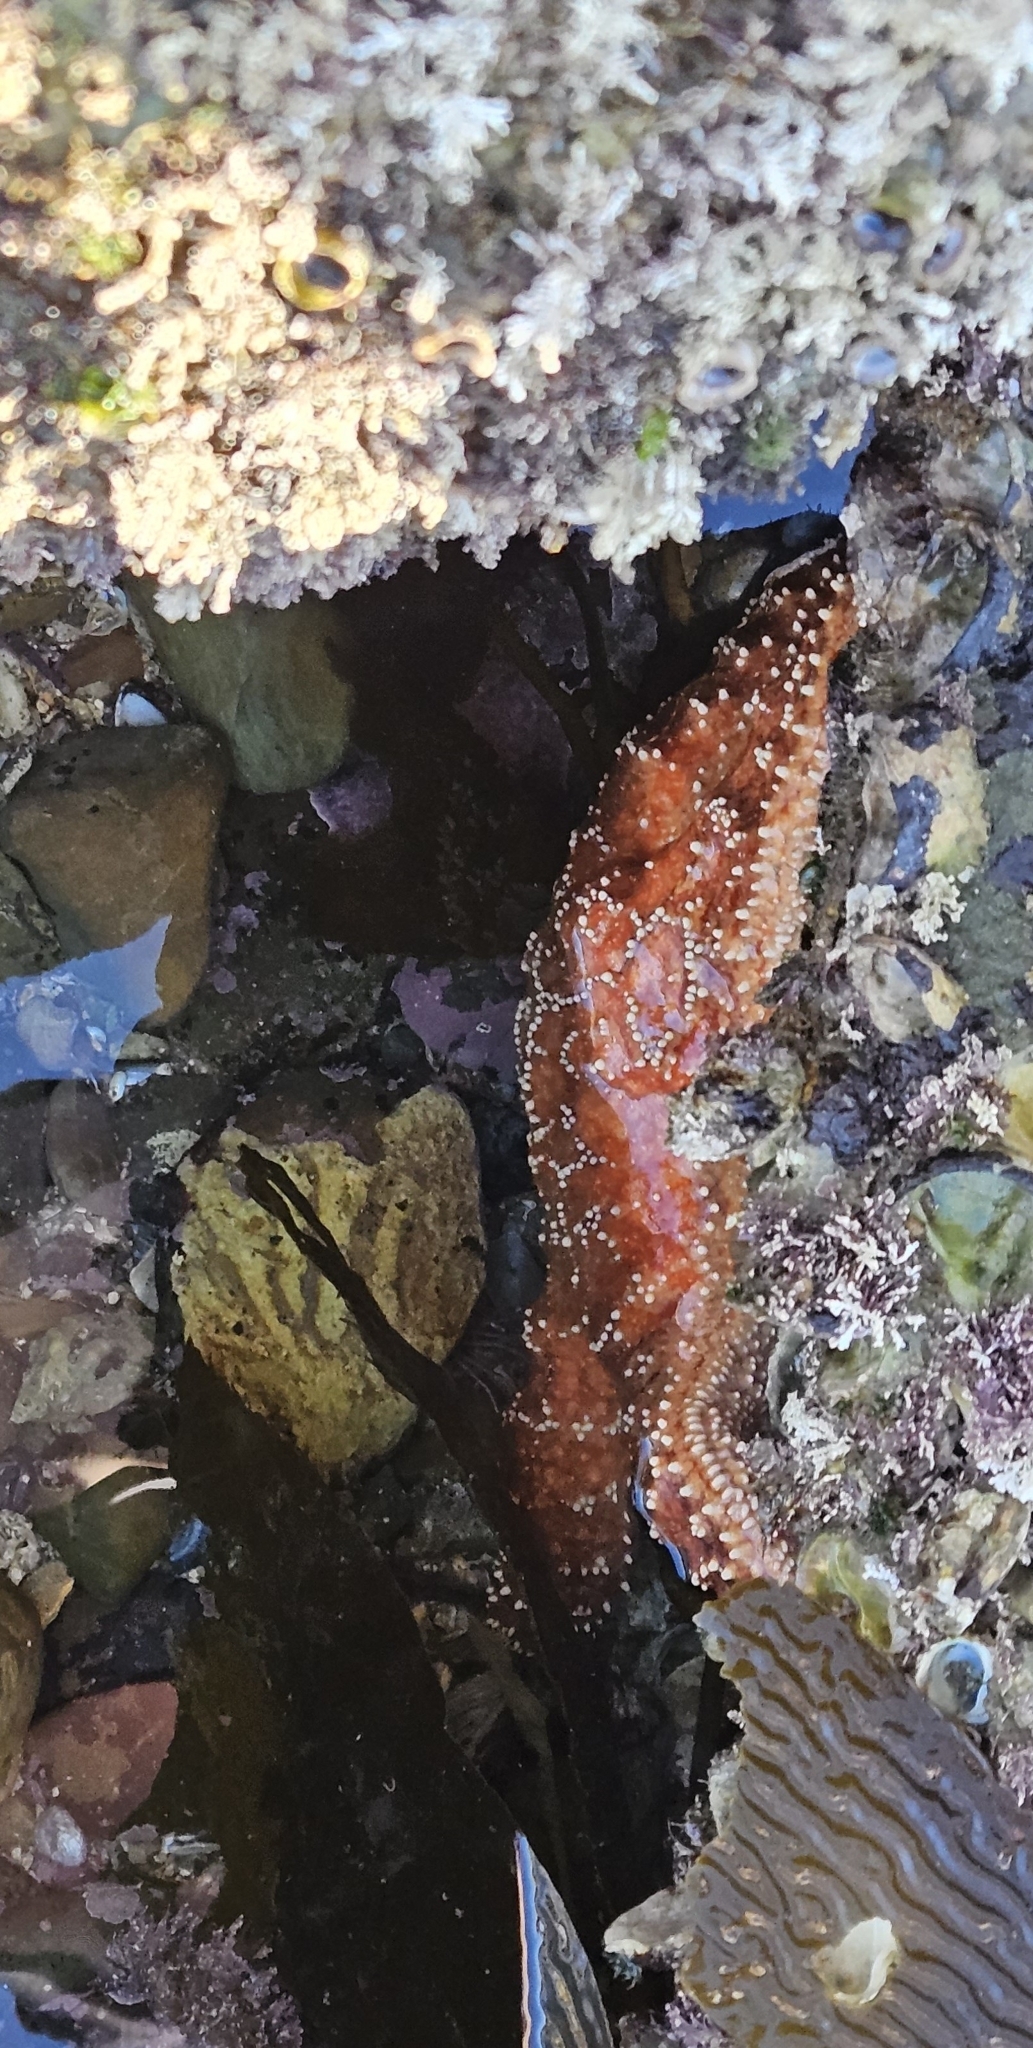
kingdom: Animalia
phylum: Echinodermata
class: Asteroidea
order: Forcipulatida
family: Asteriidae
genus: Pisaster
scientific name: Pisaster ochraceus
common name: Ochre stars
